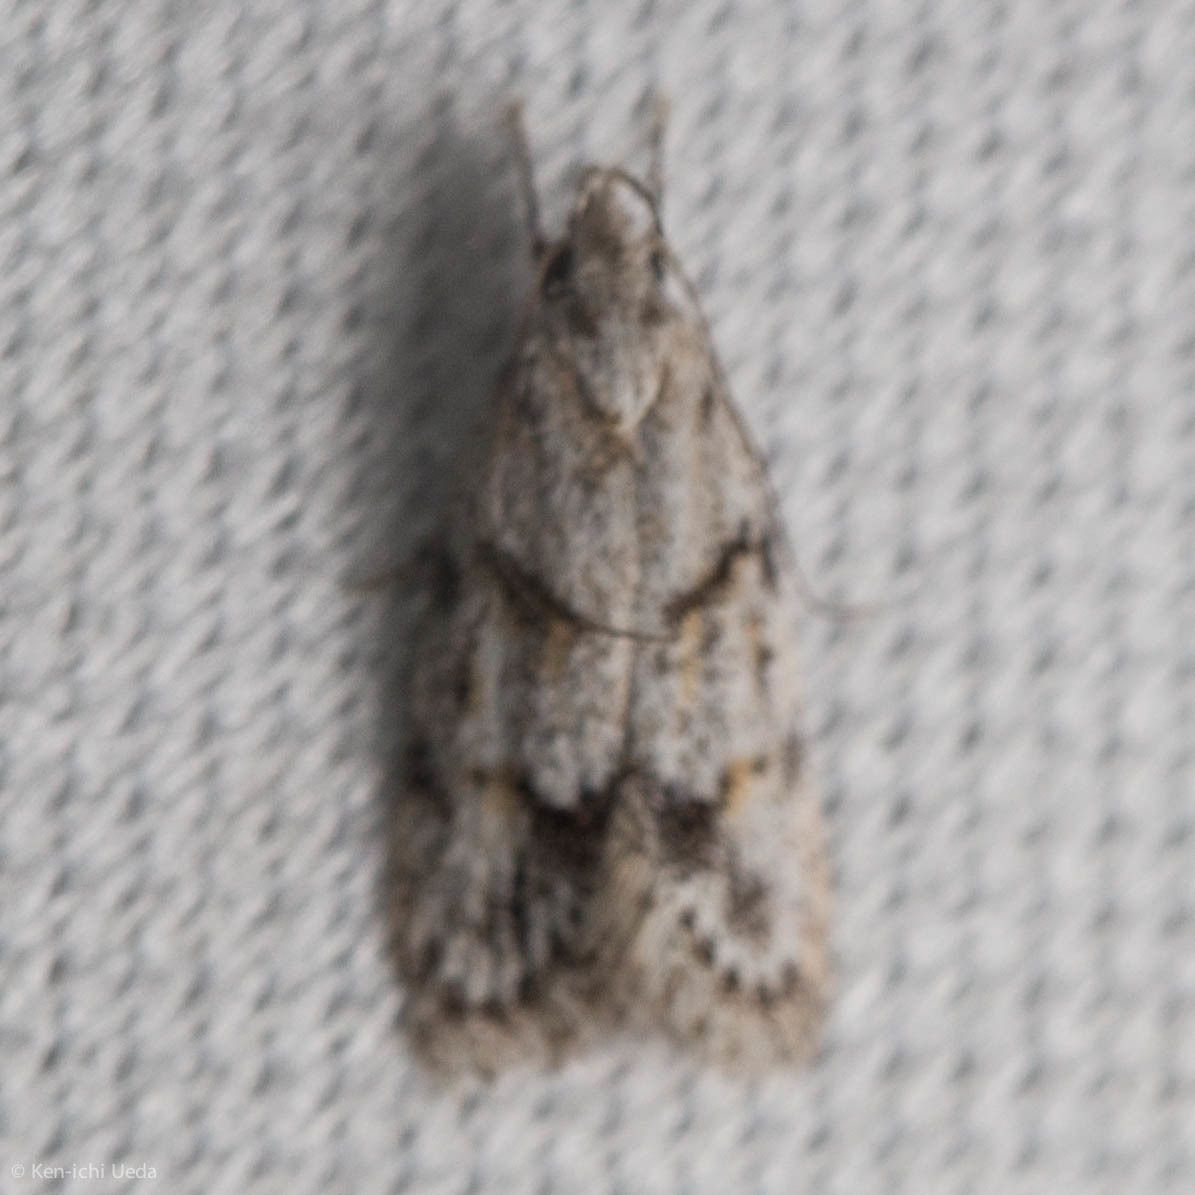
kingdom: Animalia
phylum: Arthropoda
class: Insecta
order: Lepidoptera
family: Autostichidae
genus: Symmoca
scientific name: Symmoca signatella
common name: Dockland obscure
